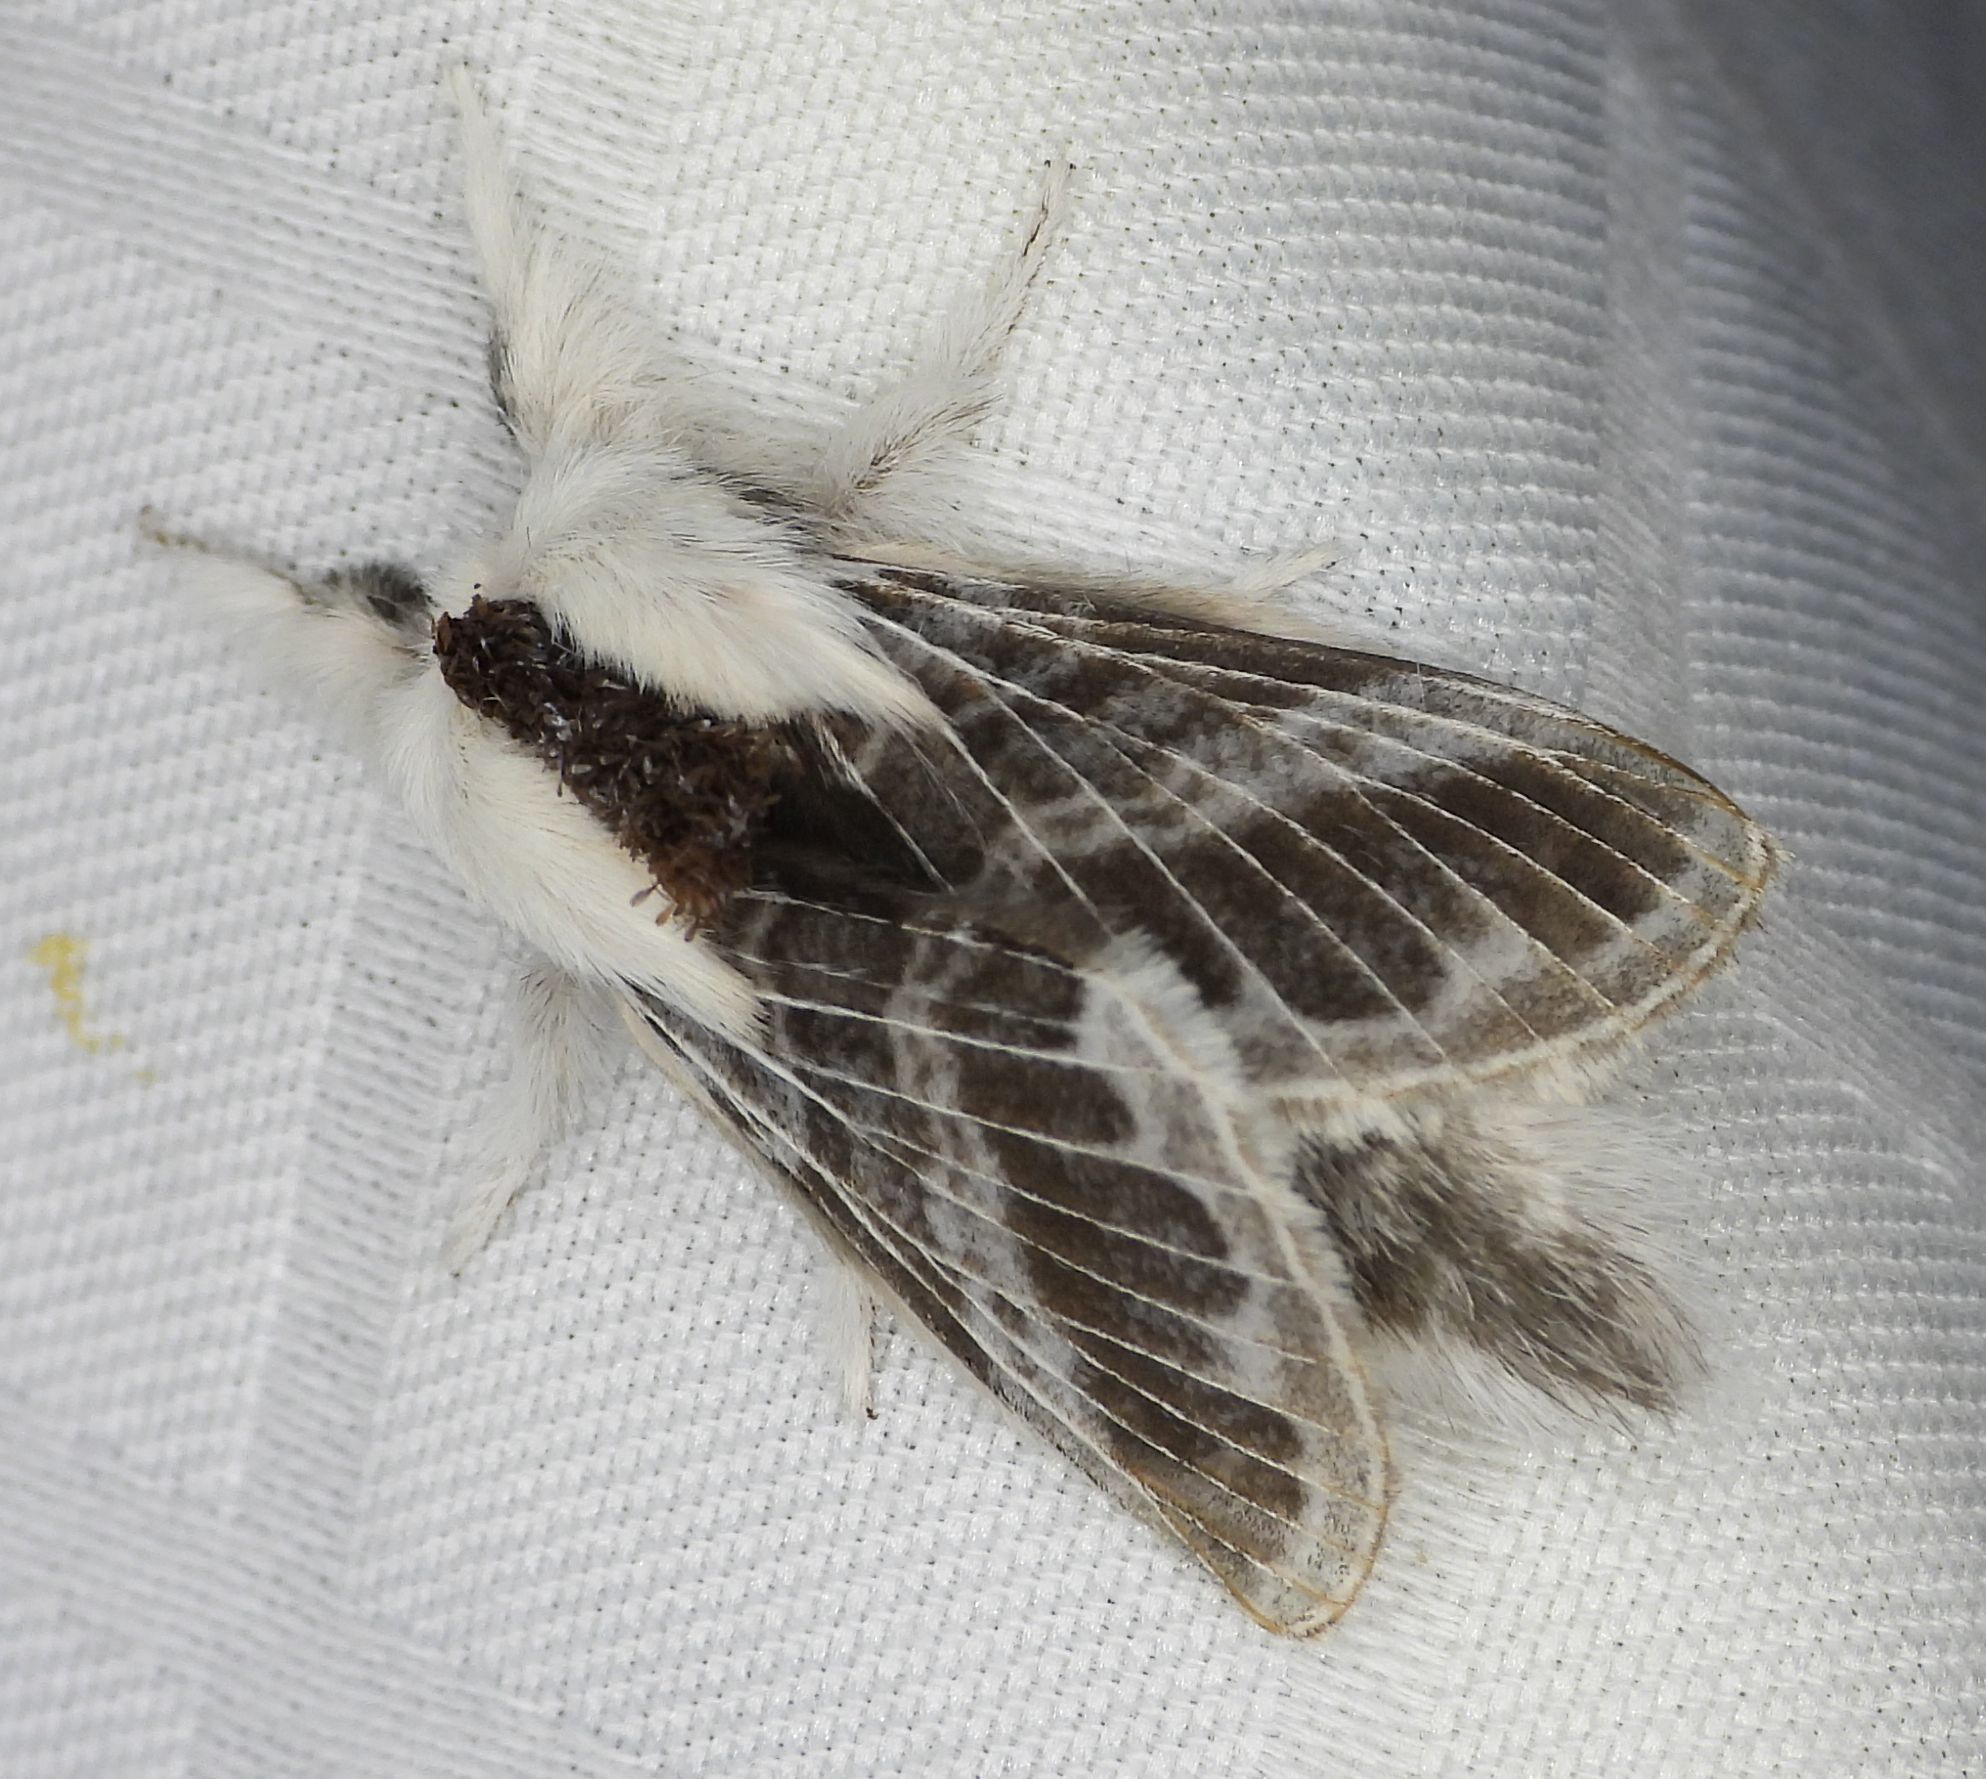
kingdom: Animalia
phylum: Arthropoda
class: Insecta
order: Lepidoptera
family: Lasiocampidae
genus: Tolype
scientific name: Tolype velleda
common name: Large tolype moth
